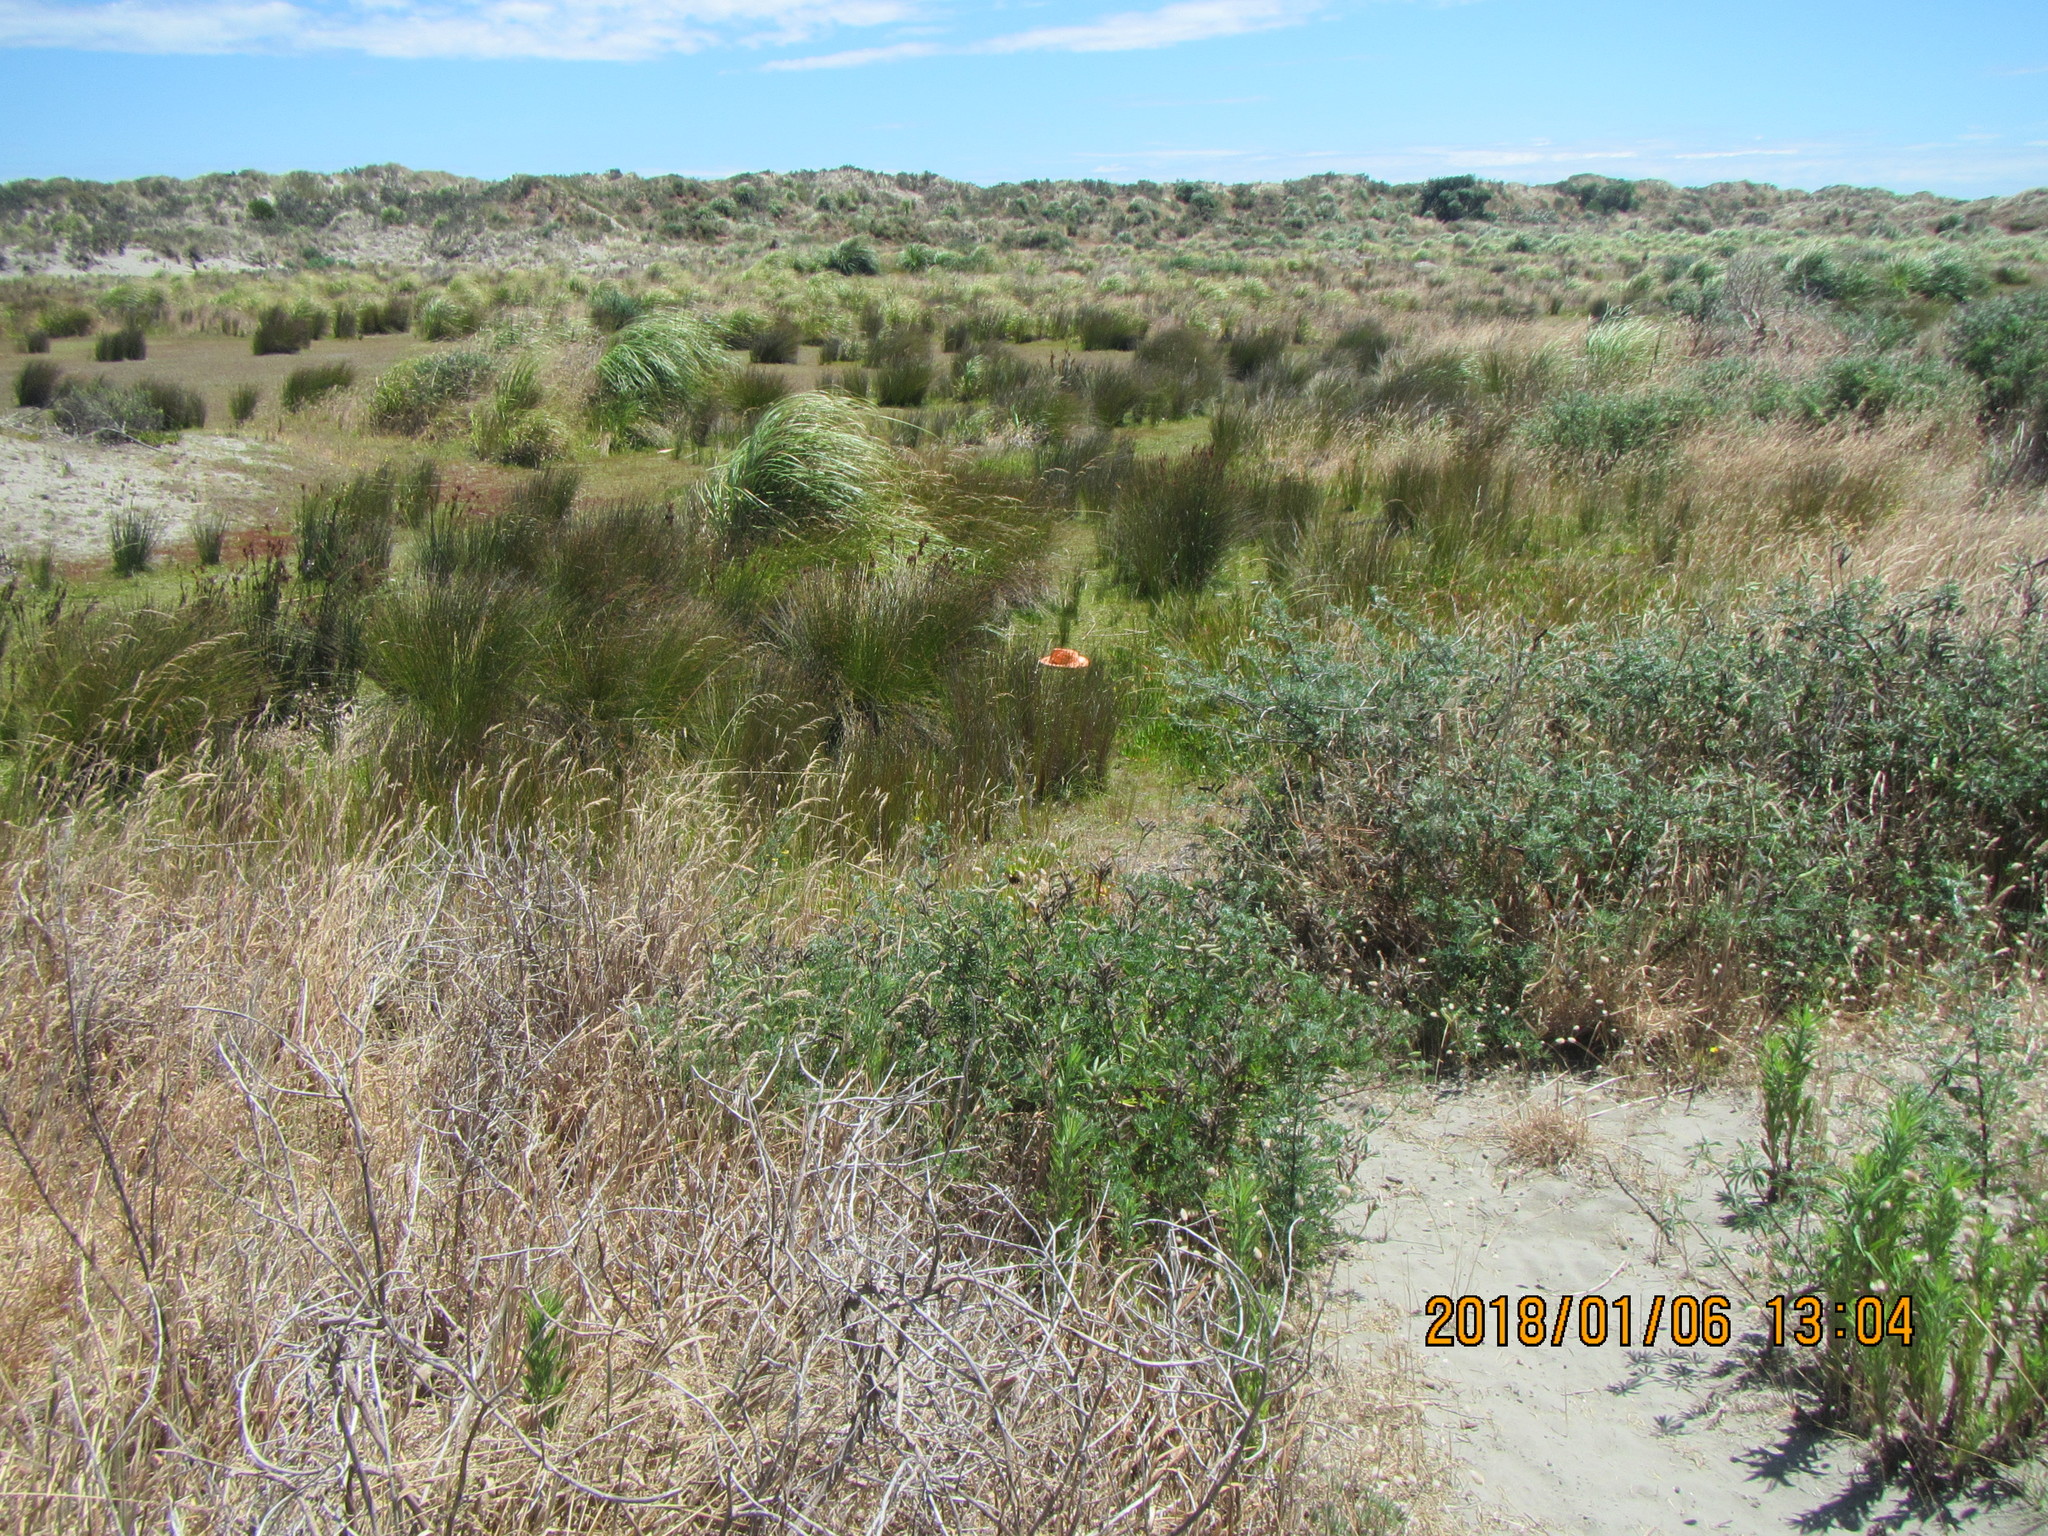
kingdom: Plantae
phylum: Tracheophyta
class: Magnoliopsida
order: Ericales
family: Primulaceae
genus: Samolus
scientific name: Samolus repens
